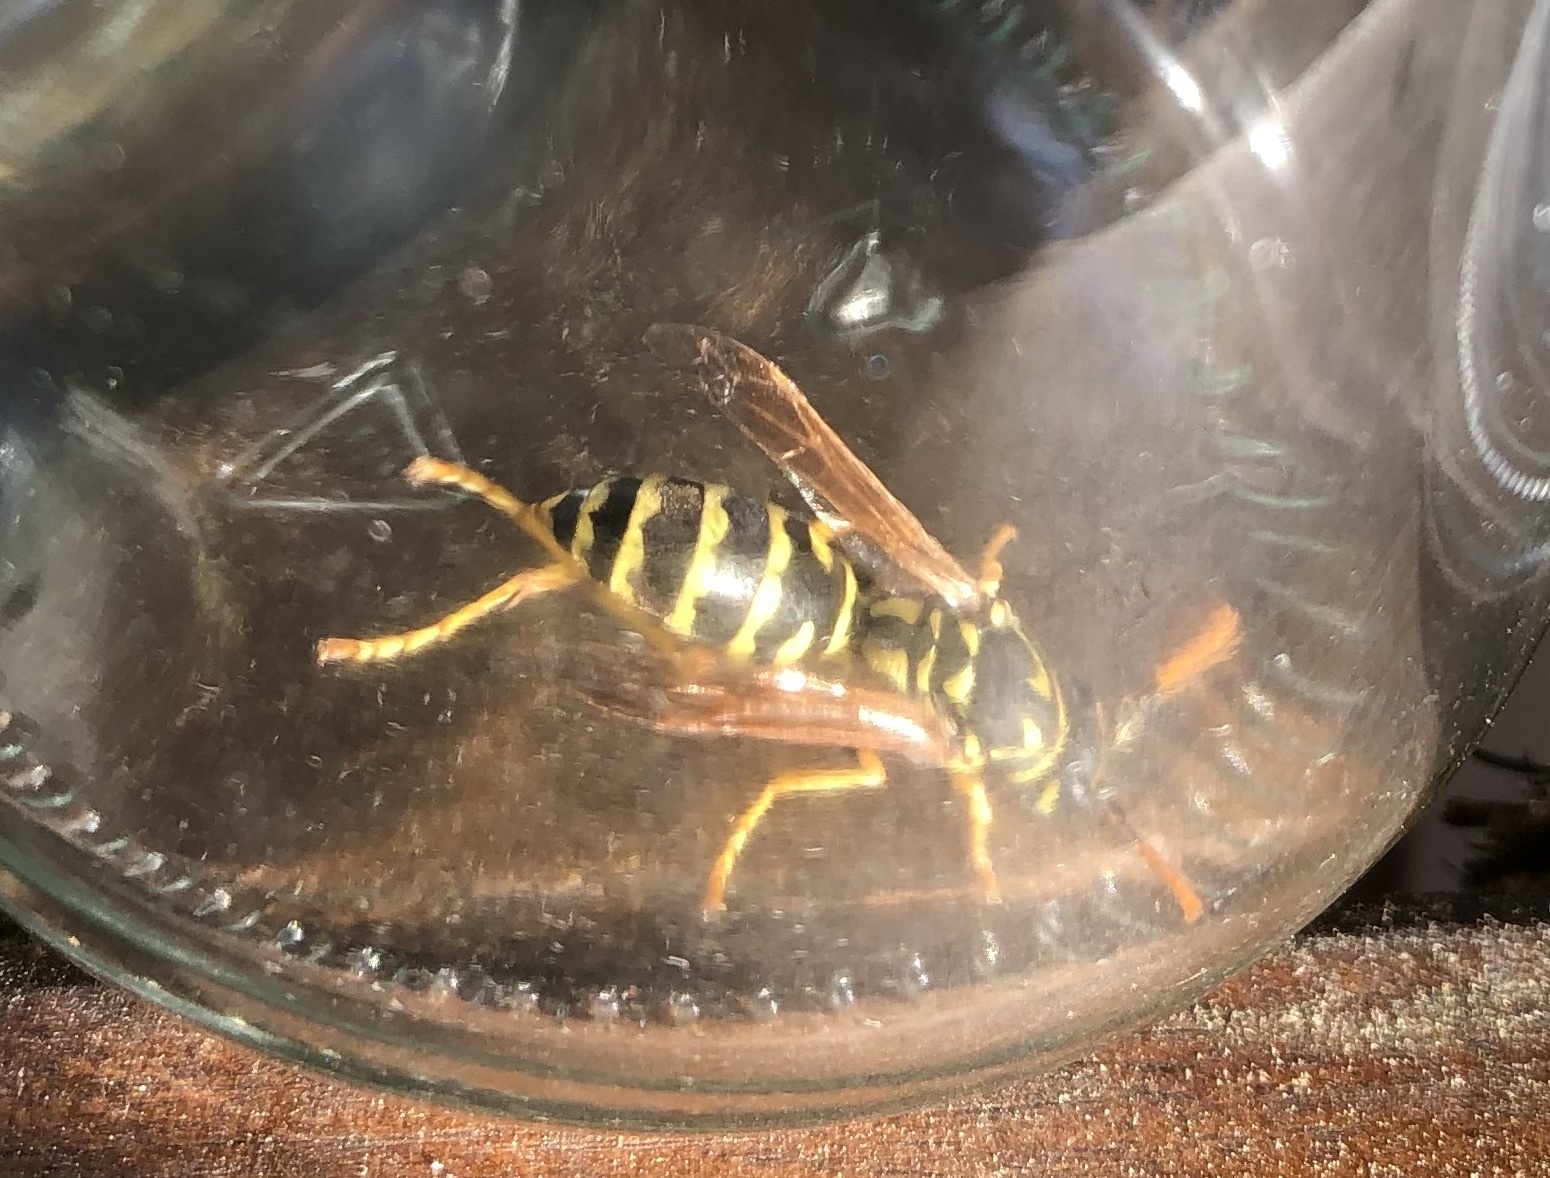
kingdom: Animalia
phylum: Arthropoda
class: Insecta
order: Hymenoptera
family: Eumenidae
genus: Polistes
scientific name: Polistes dominula
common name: Paper wasp
